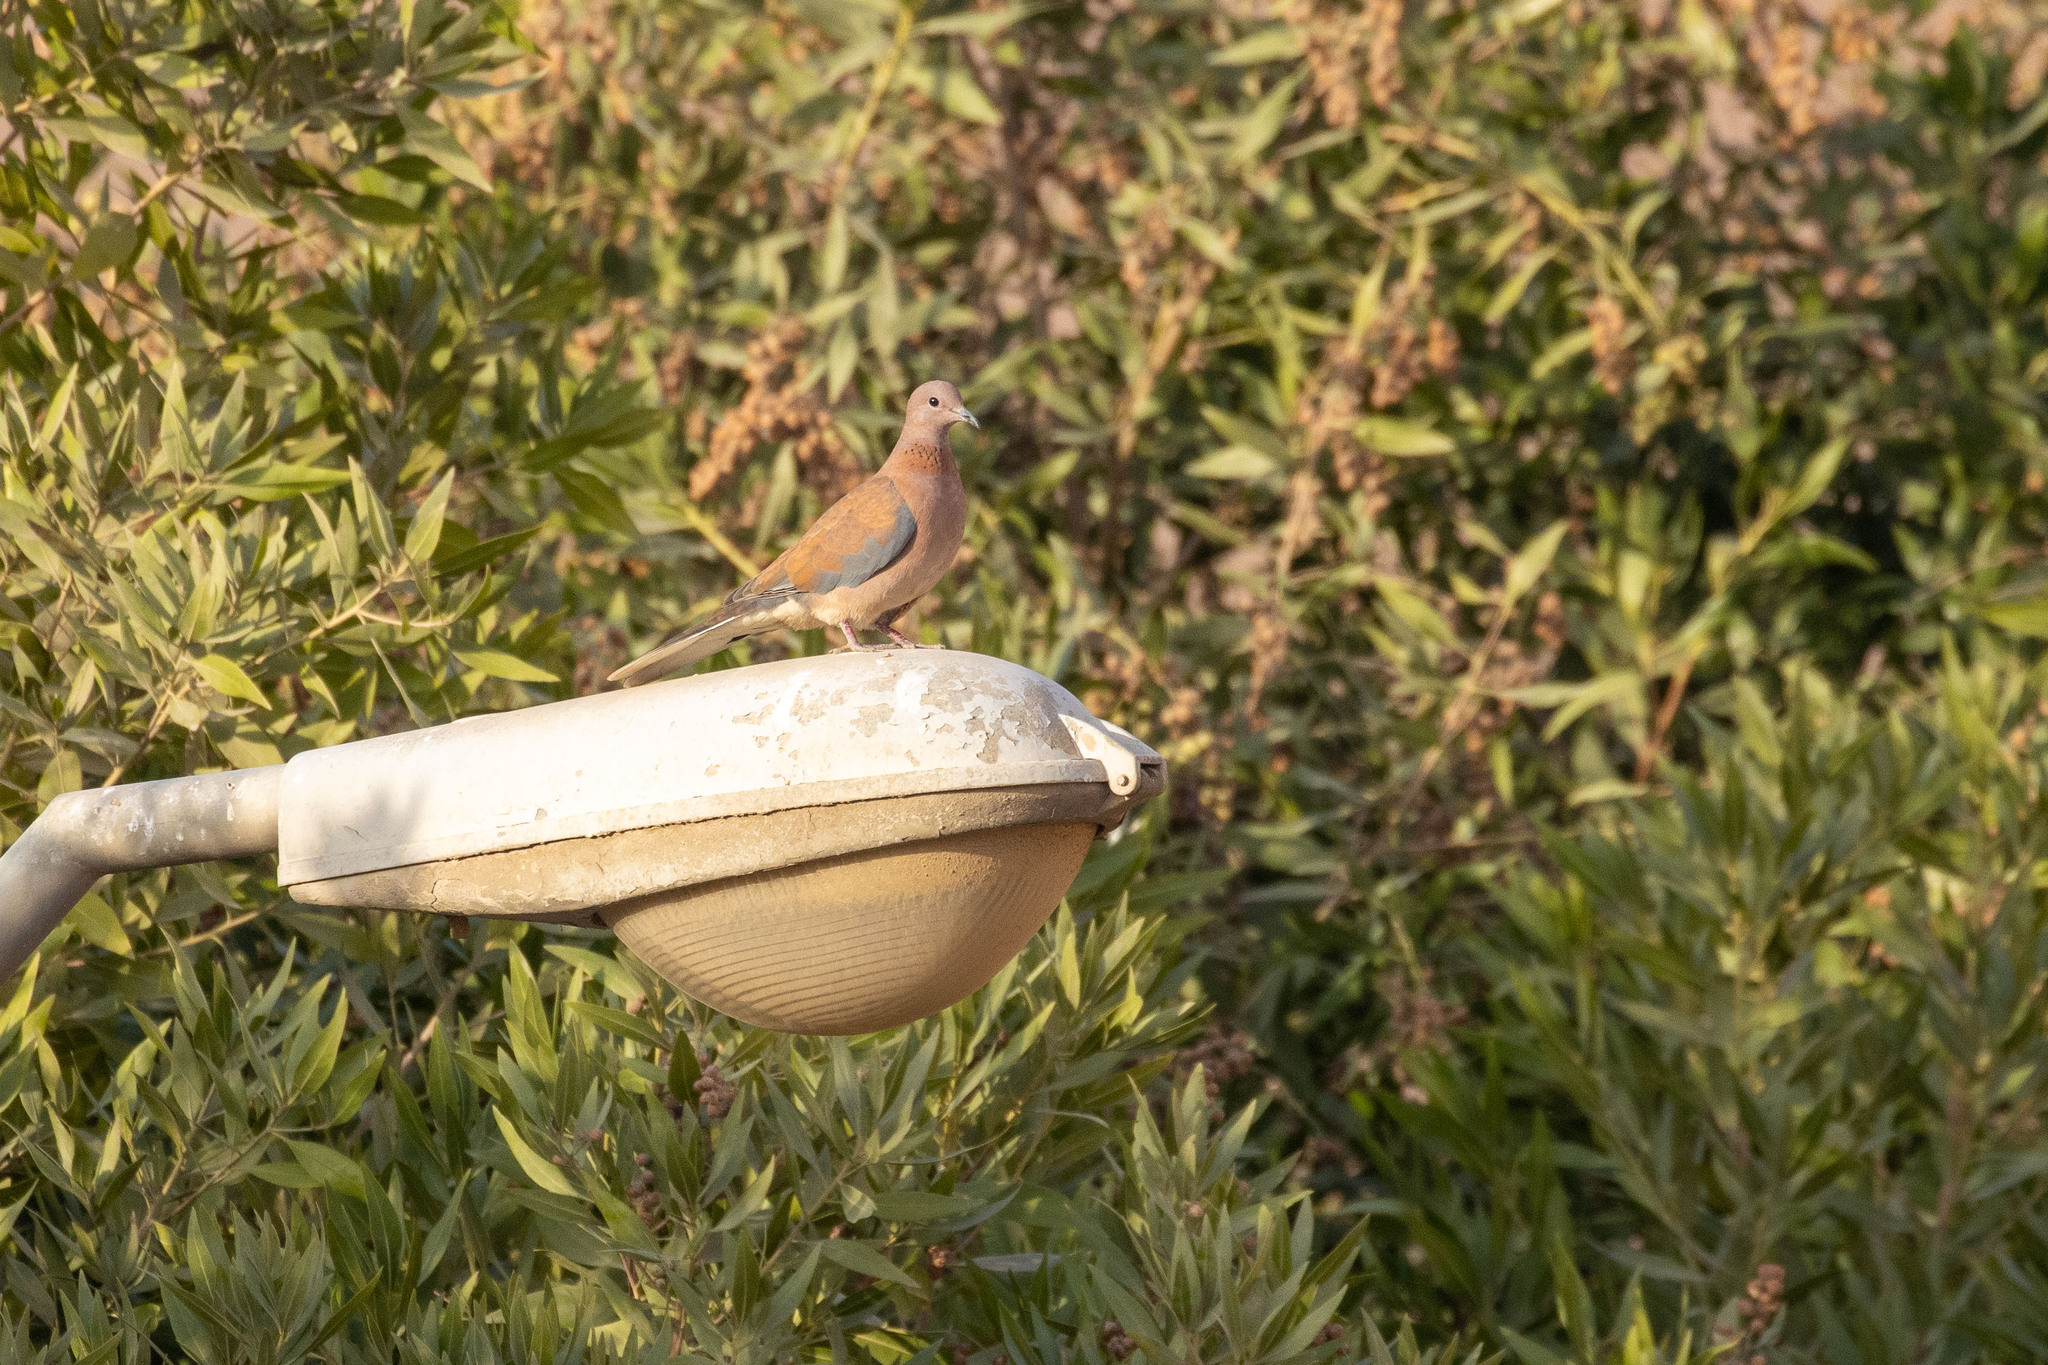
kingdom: Animalia
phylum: Chordata
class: Aves
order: Columbiformes
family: Columbidae
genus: Spilopelia
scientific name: Spilopelia senegalensis
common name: Laughing dove
